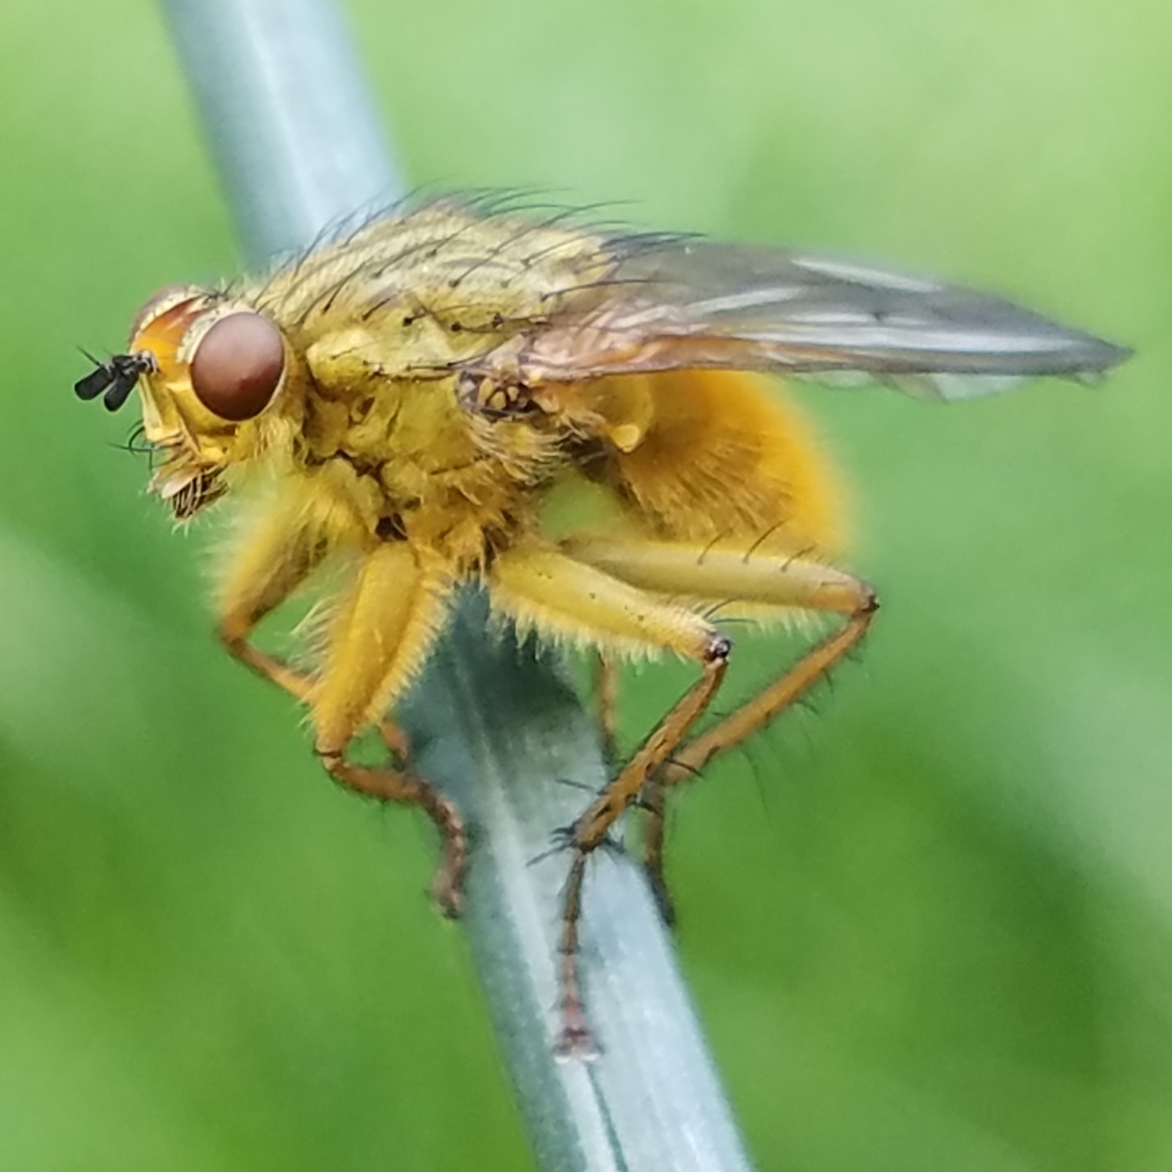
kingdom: Animalia
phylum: Arthropoda
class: Insecta
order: Diptera
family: Scathophagidae
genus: Scathophaga
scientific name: Scathophaga stercoraria
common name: Yellow dung fly
